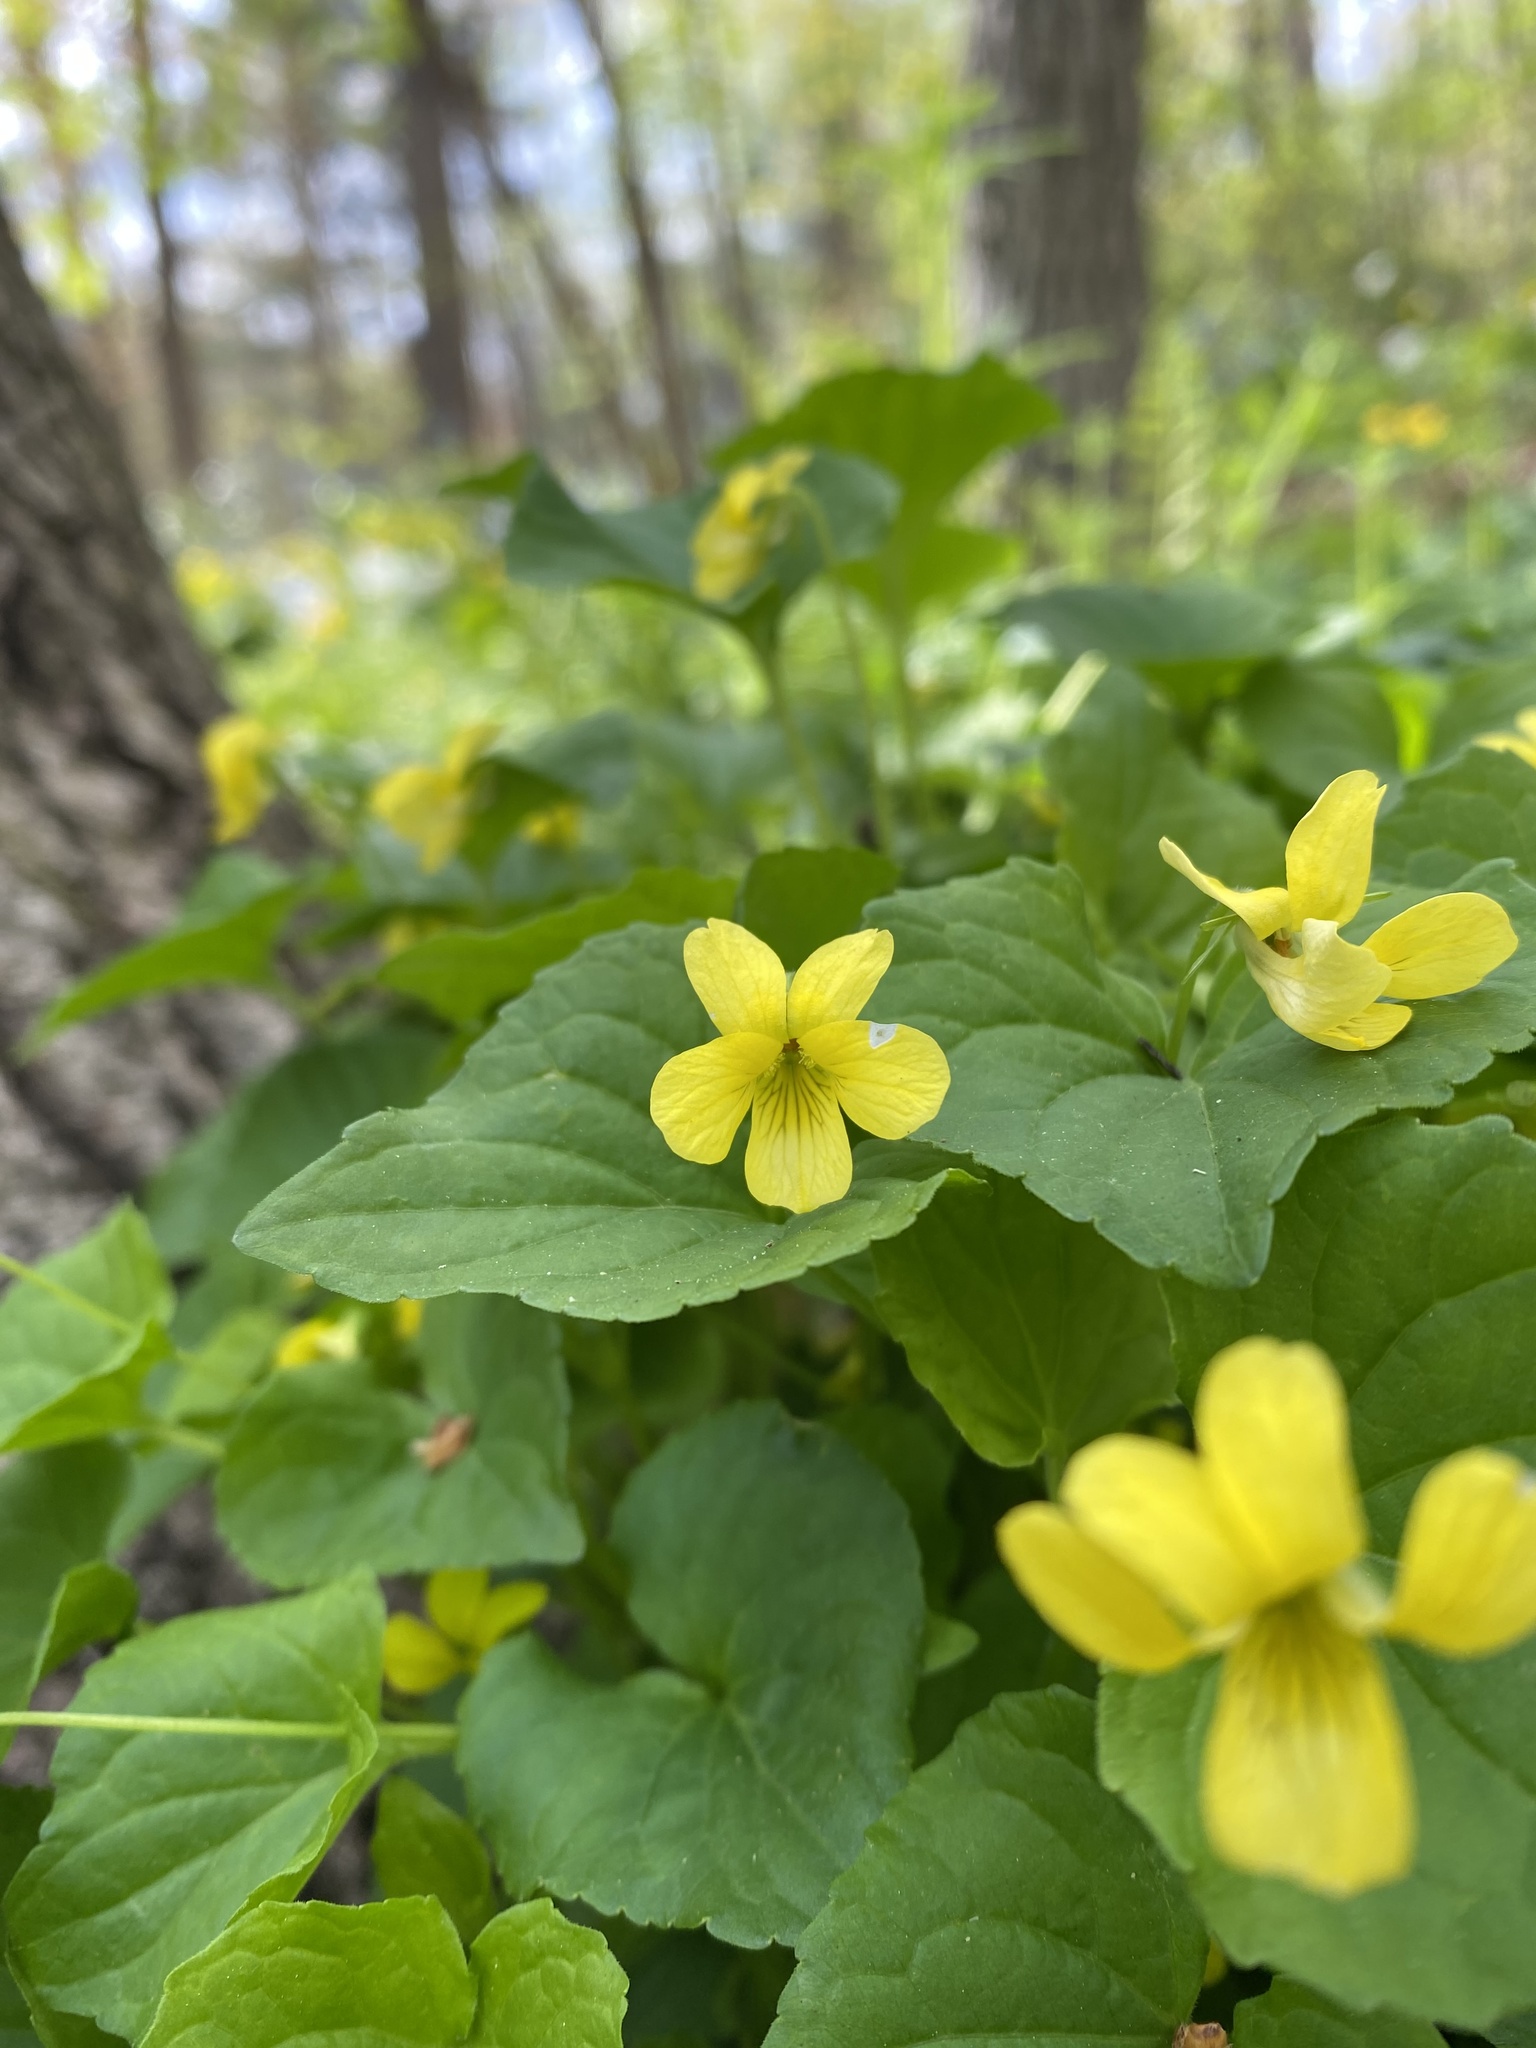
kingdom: Plantae
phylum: Tracheophyta
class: Magnoliopsida
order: Malpighiales
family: Violaceae
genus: Viola
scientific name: Viola eriocarpa
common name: Smooth yellow violet
